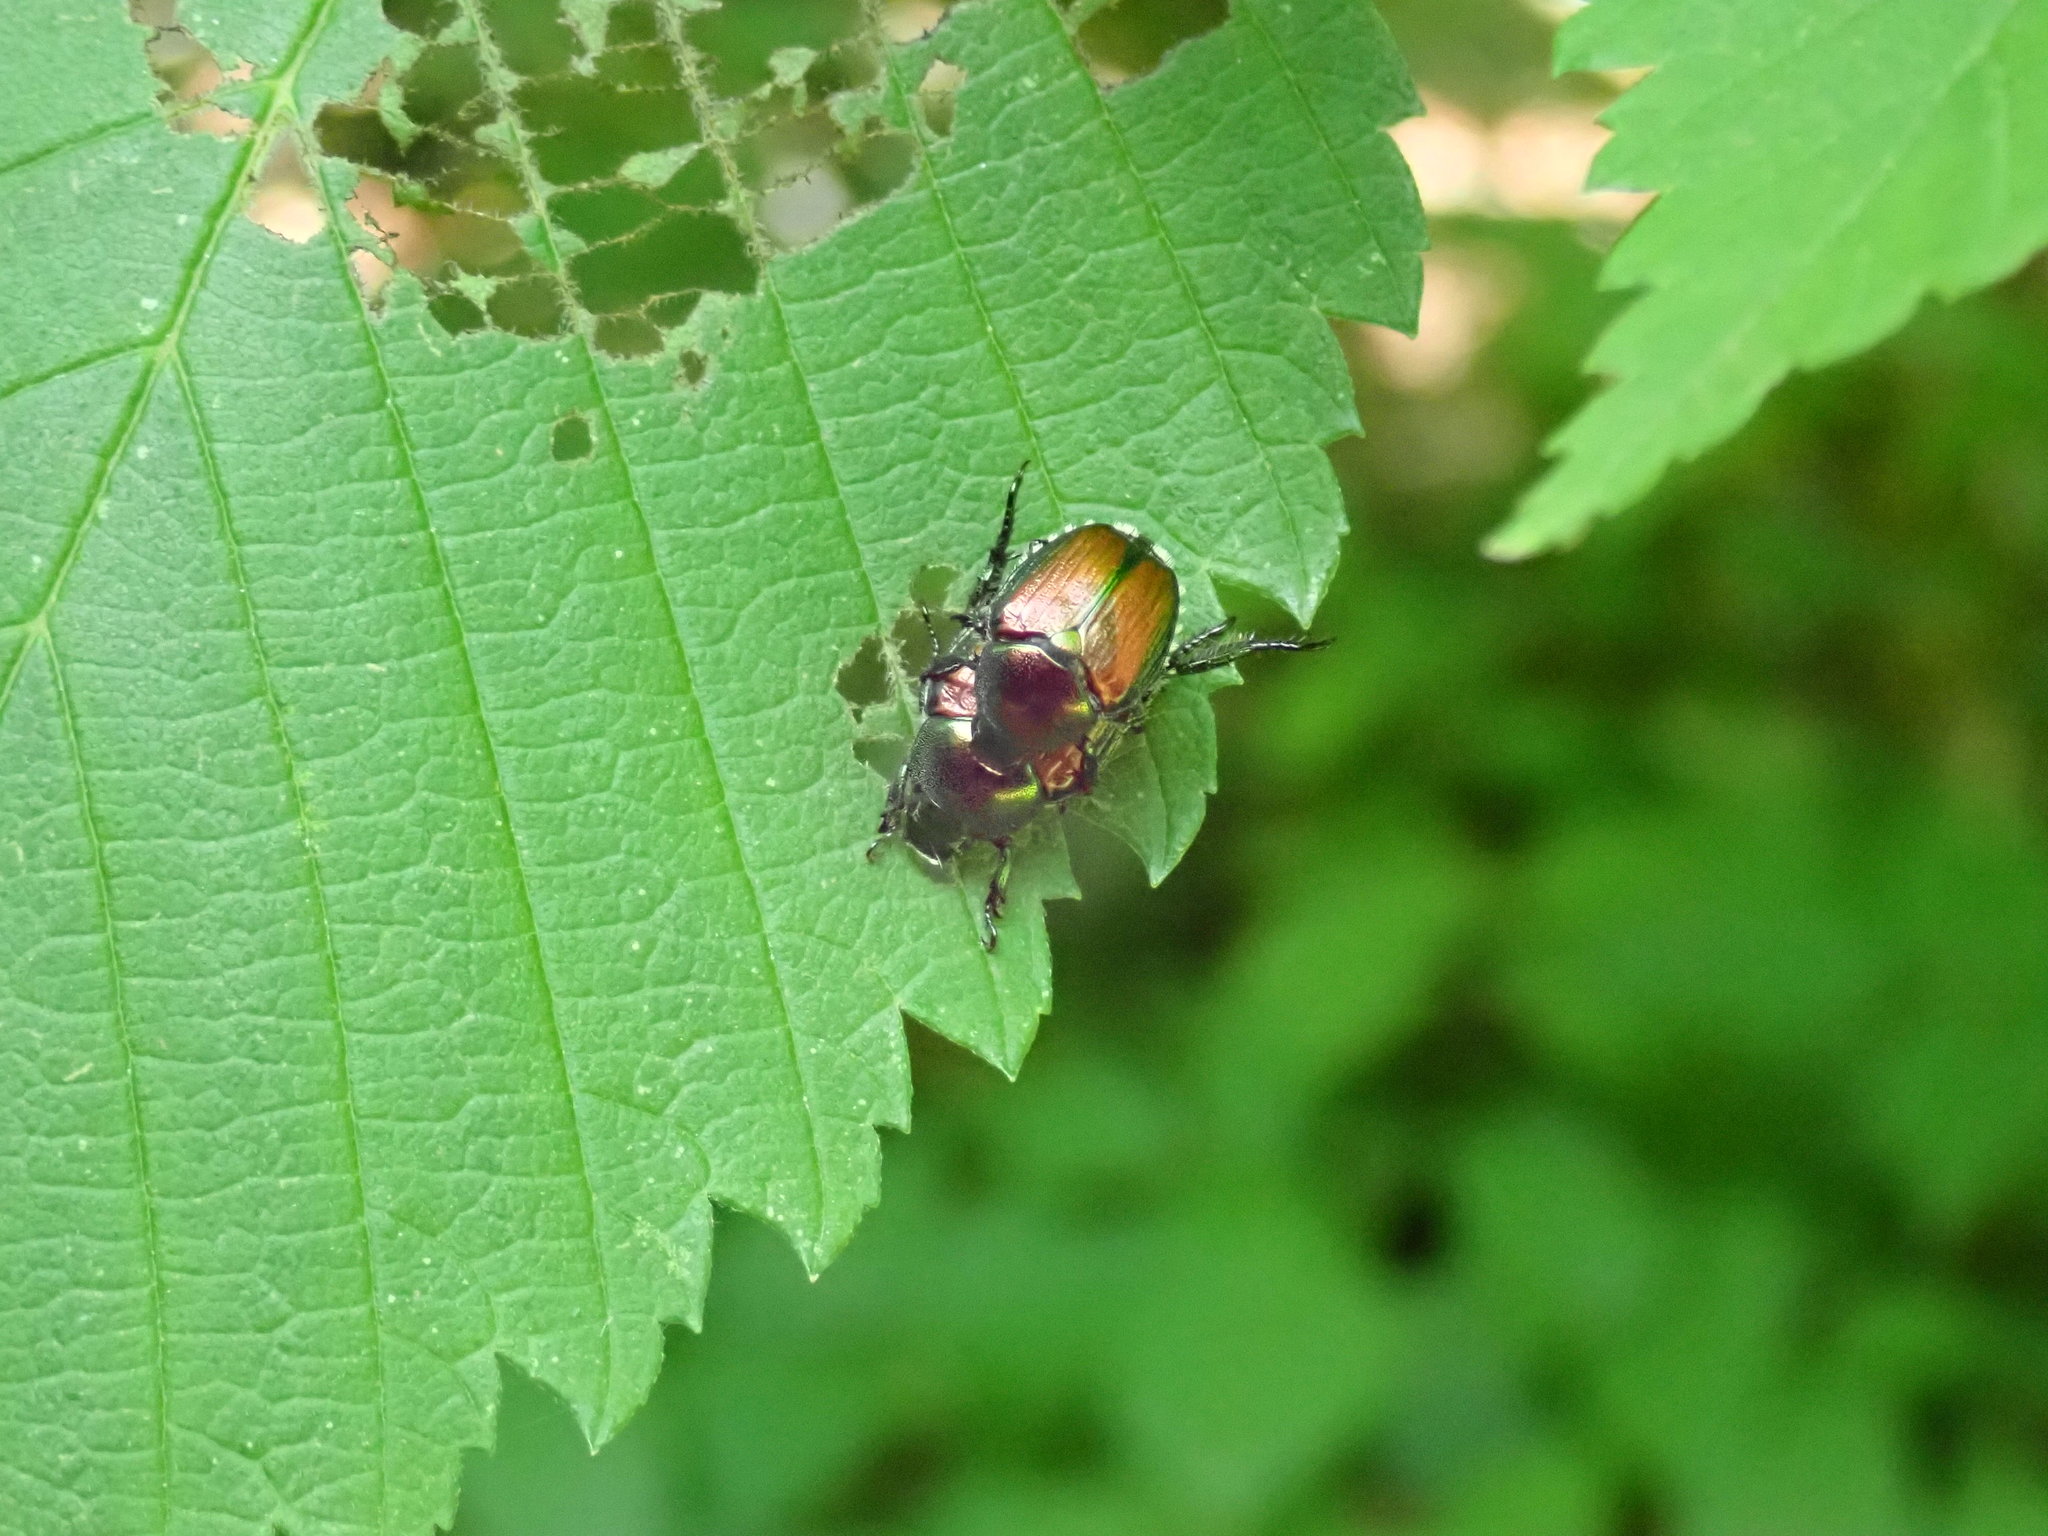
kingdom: Animalia
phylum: Arthropoda
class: Insecta
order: Coleoptera
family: Scarabaeidae
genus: Popillia
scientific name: Popillia japonica
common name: Japanese beetle
